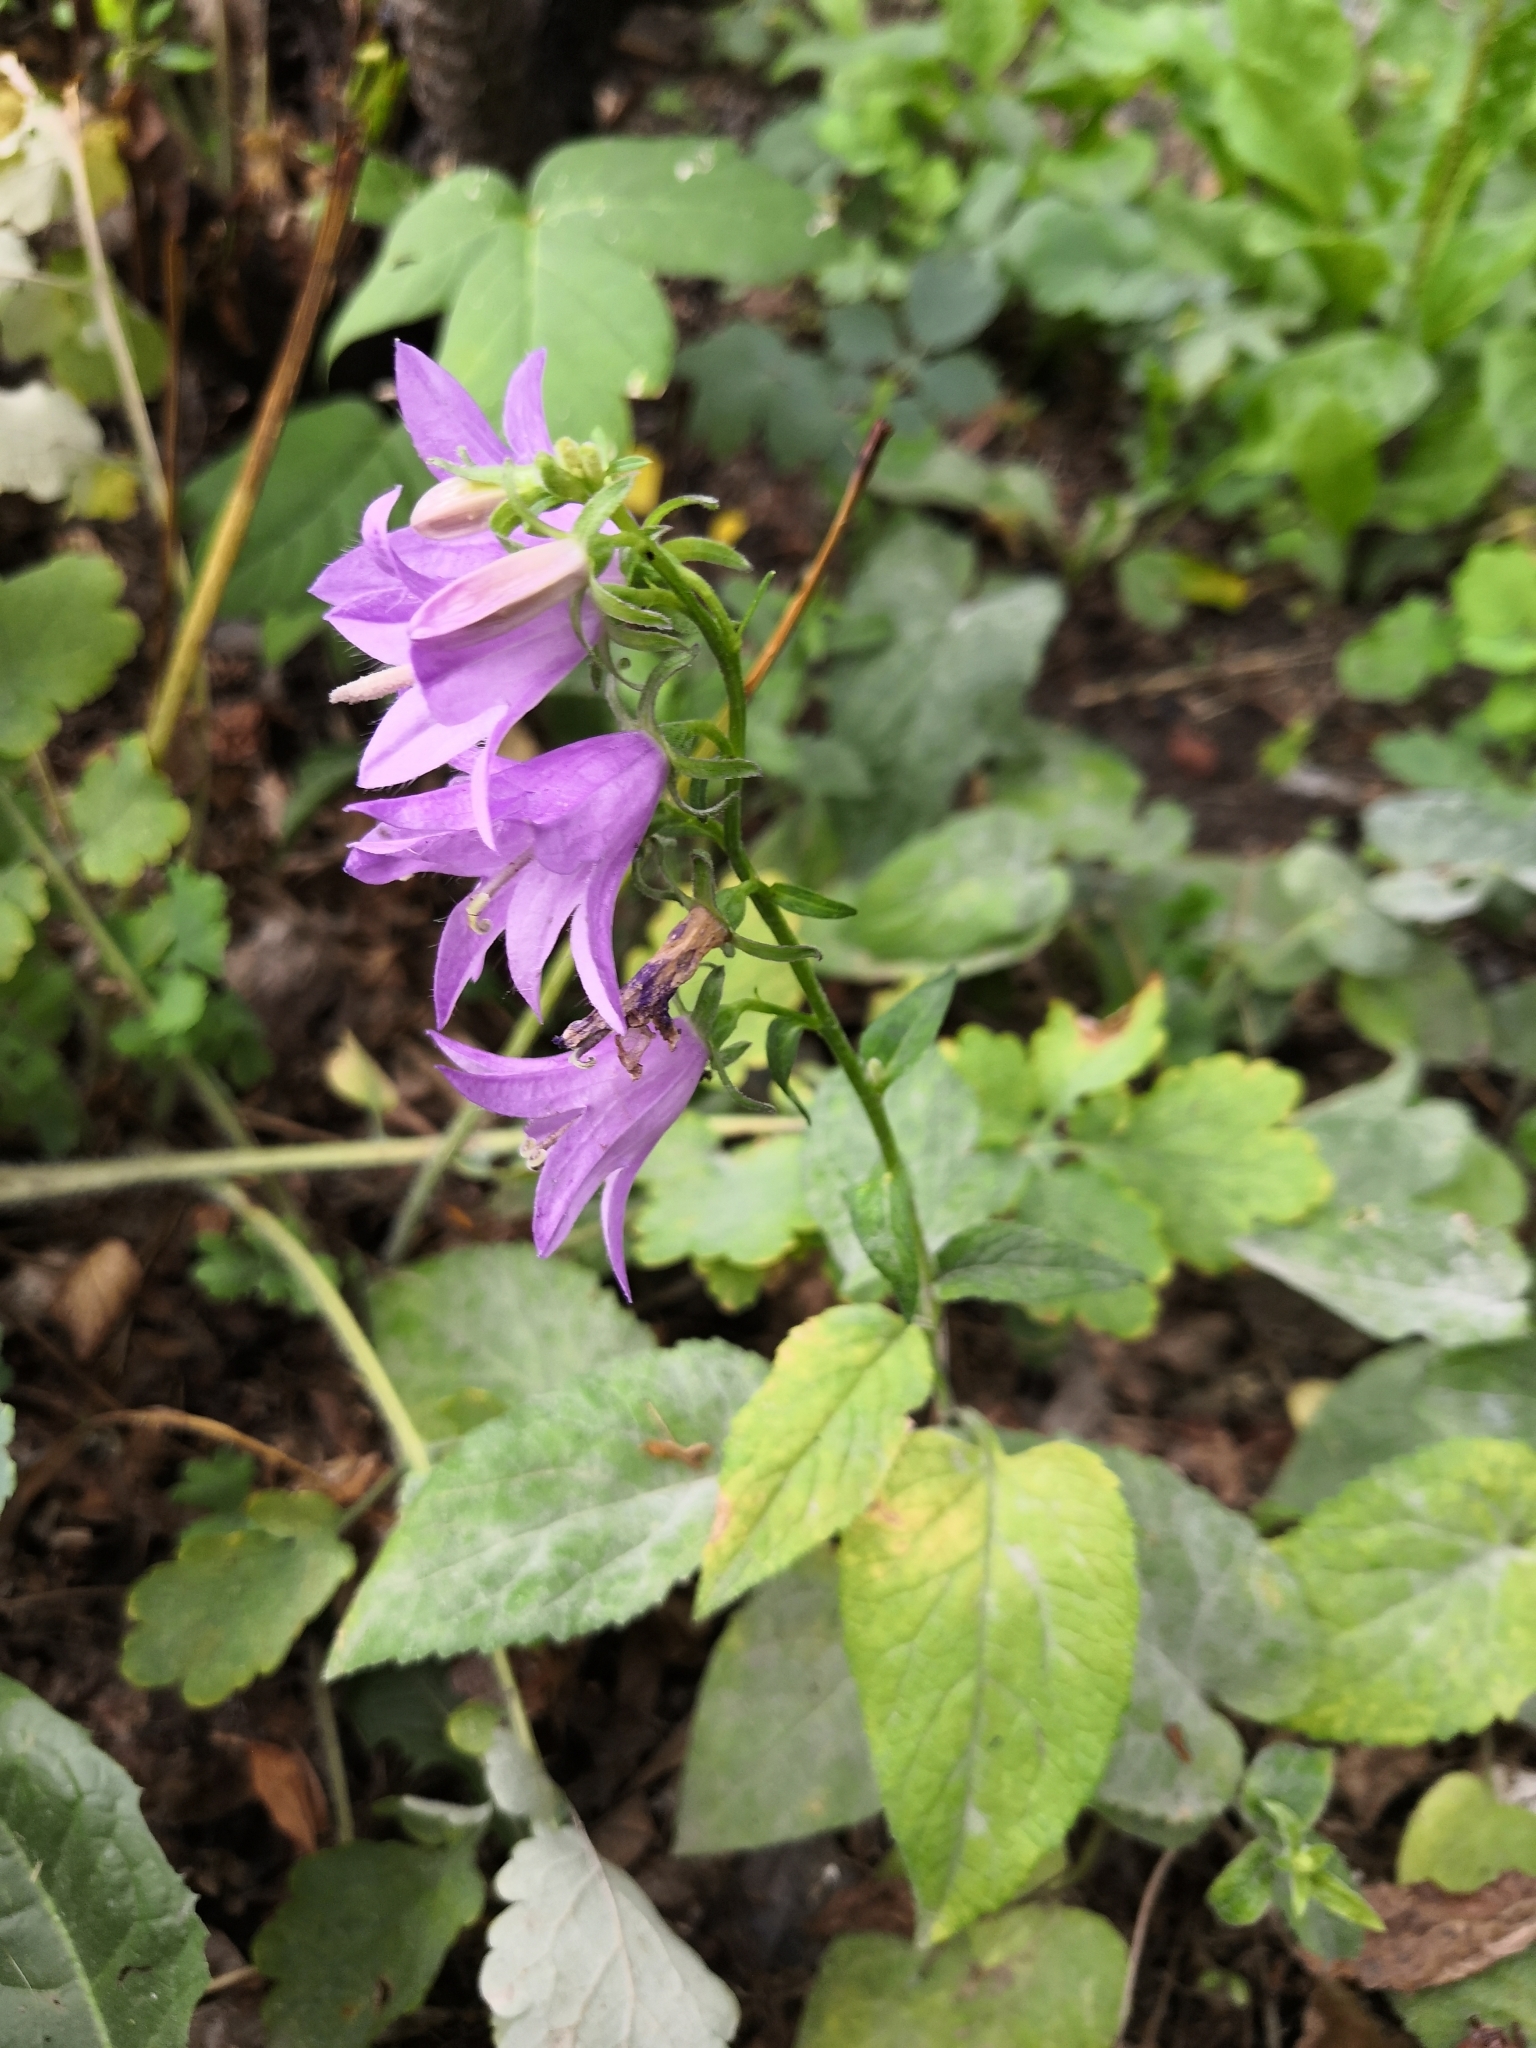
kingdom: Plantae
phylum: Tracheophyta
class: Magnoliopsida
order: Asterales
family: Campanulaceae
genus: Campanula
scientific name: Campanula rapunculoides
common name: Creeping bellflower
